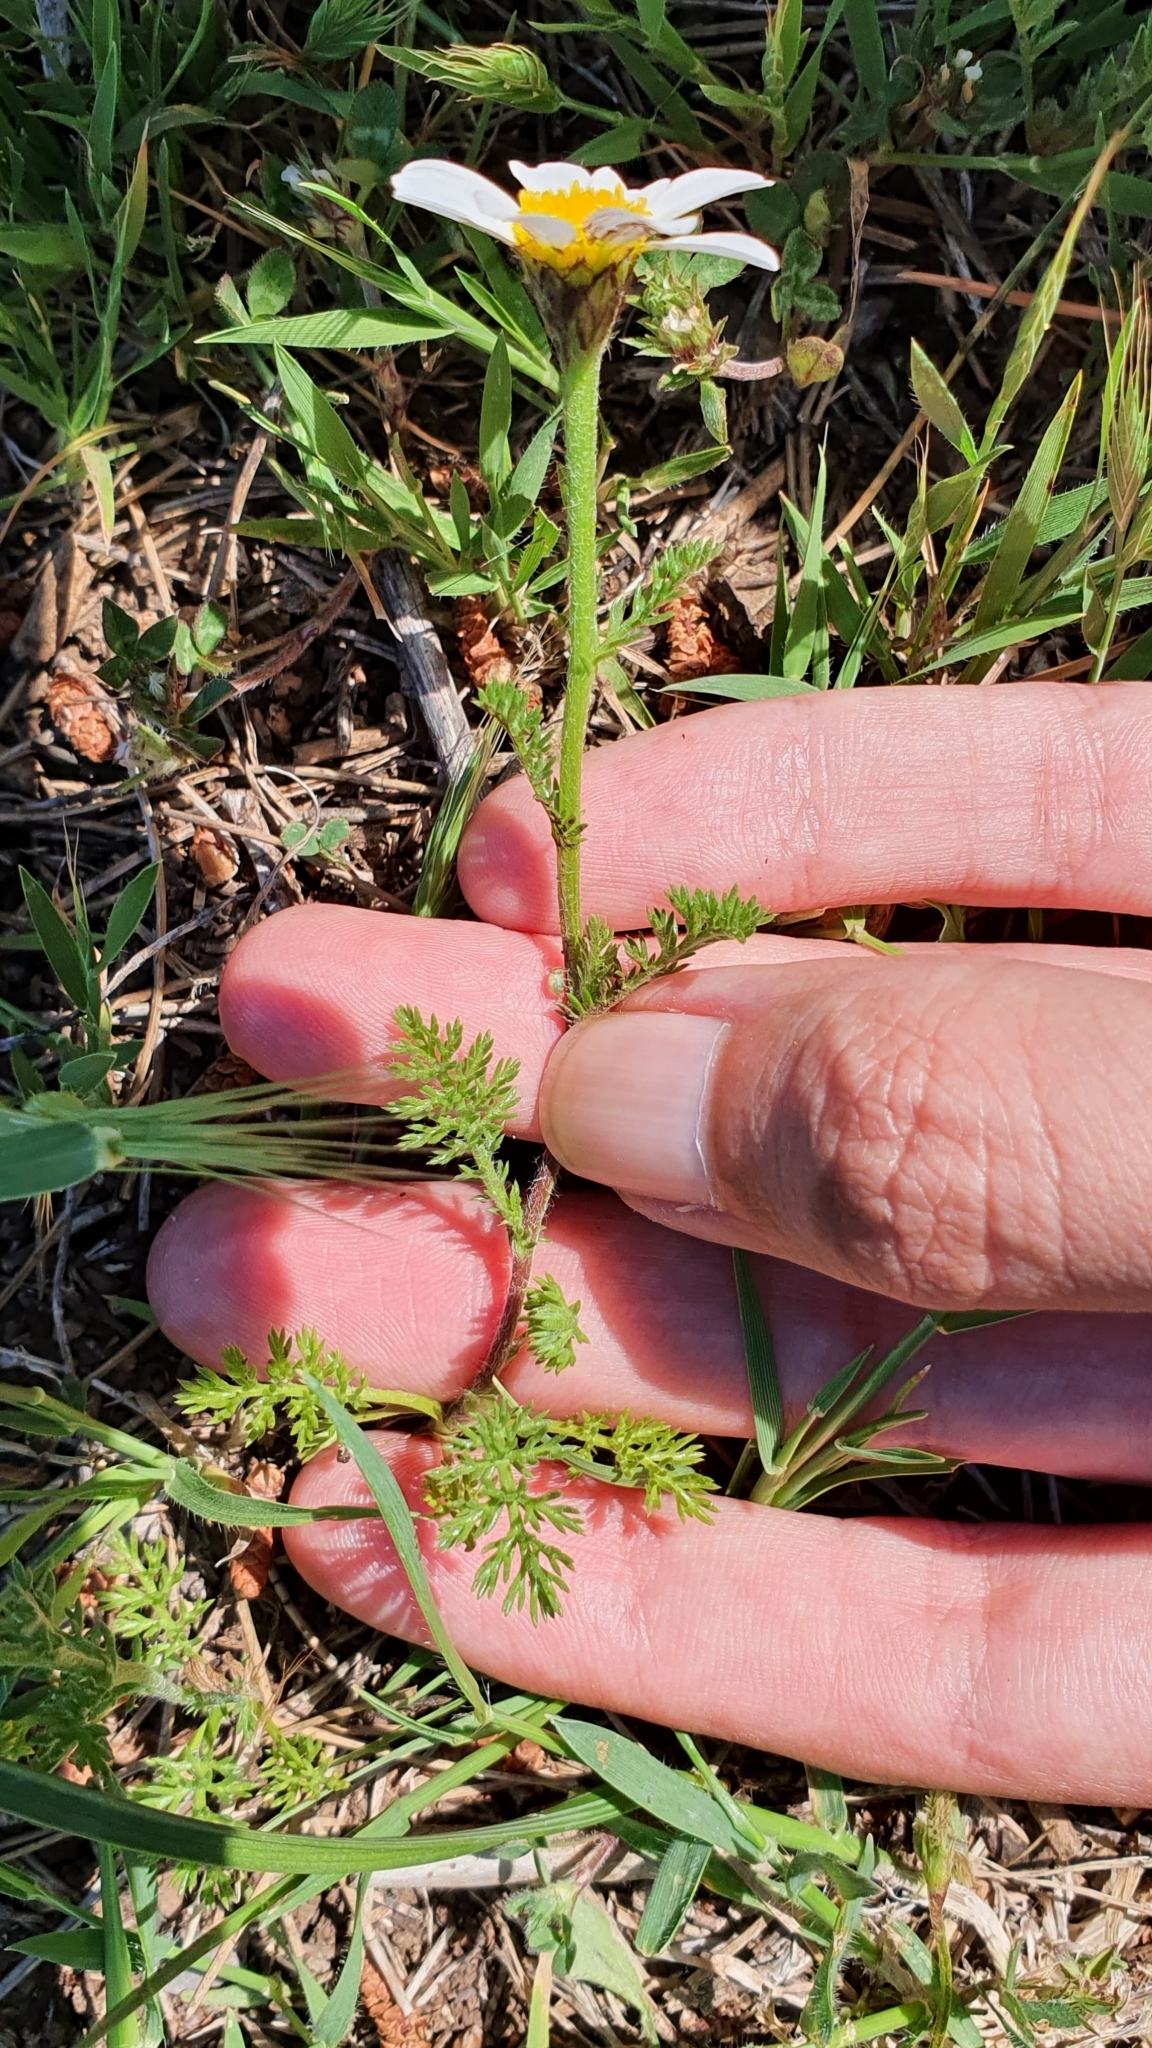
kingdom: Plantae
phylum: Tracheophyta
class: Magnoliopsida
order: Asterales
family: Asteraceae
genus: Anacyclus
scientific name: Anacyclus clavatus
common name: Whitebuttons
